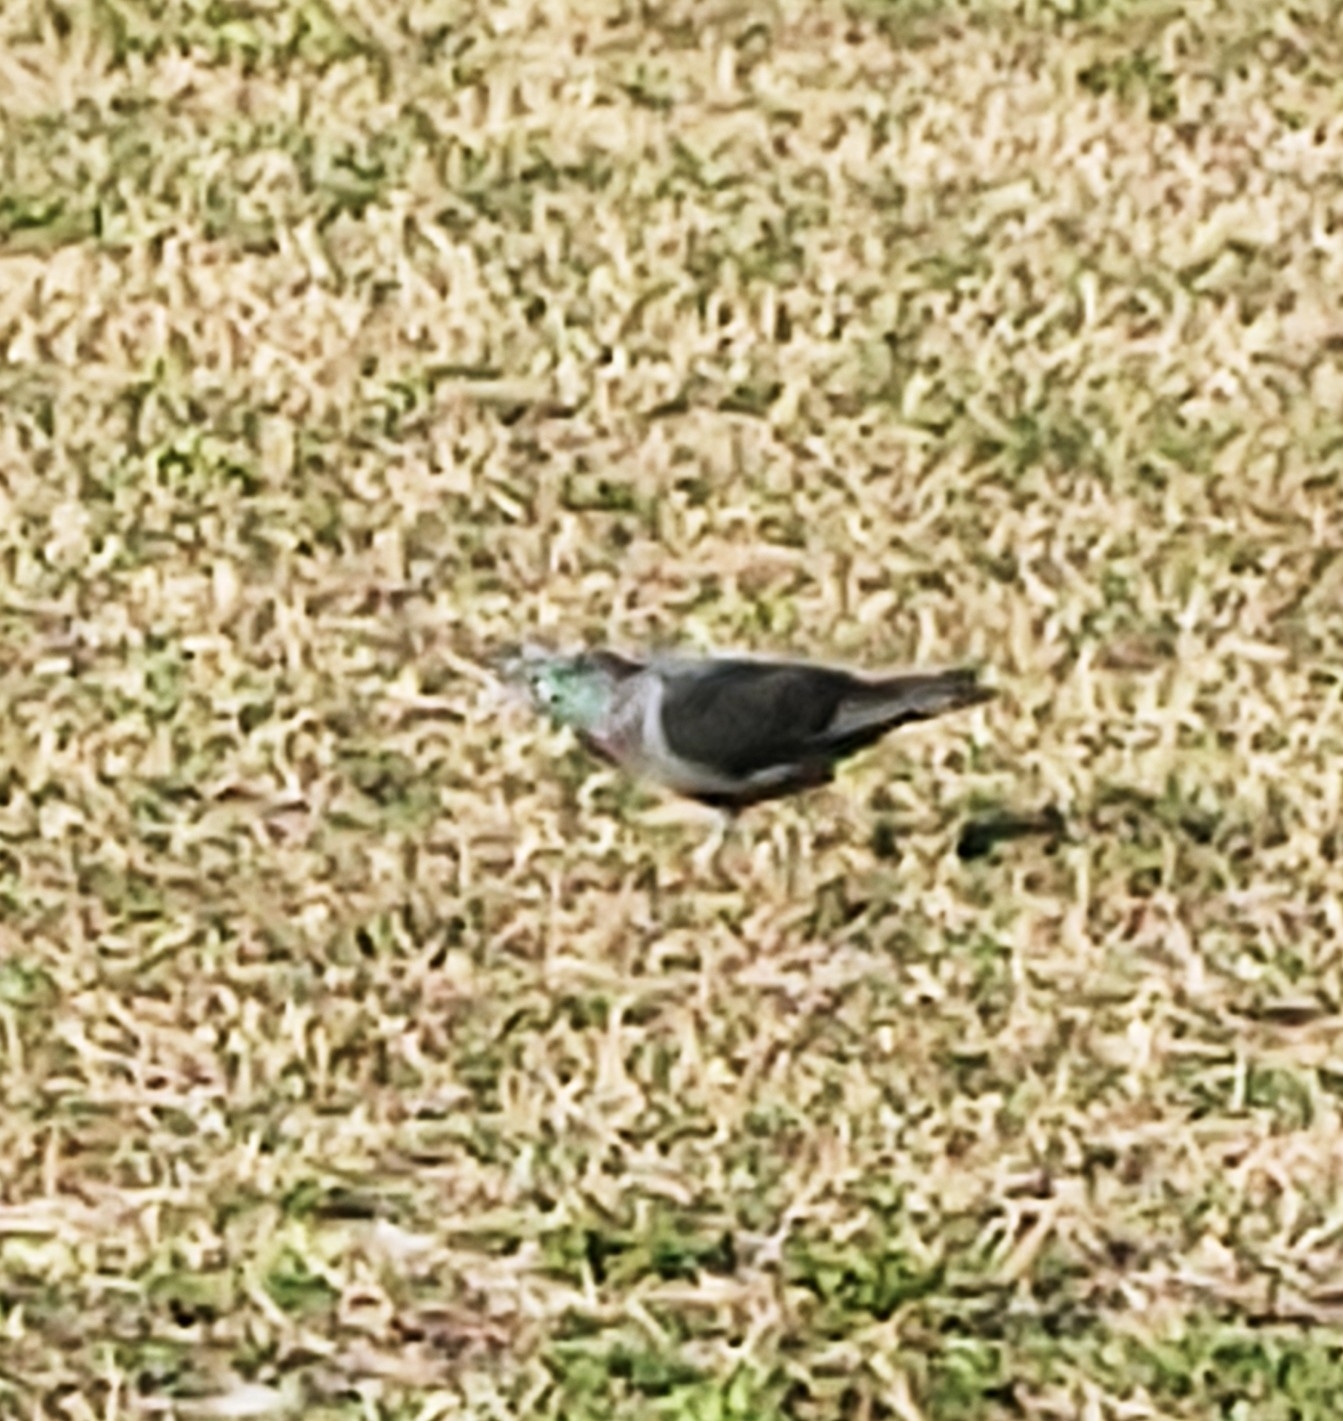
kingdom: Animalia
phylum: Chordata
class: Aves
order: Columbiformes
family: Columbidae
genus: Columba
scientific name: Columba livia
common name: Rock pigeon
